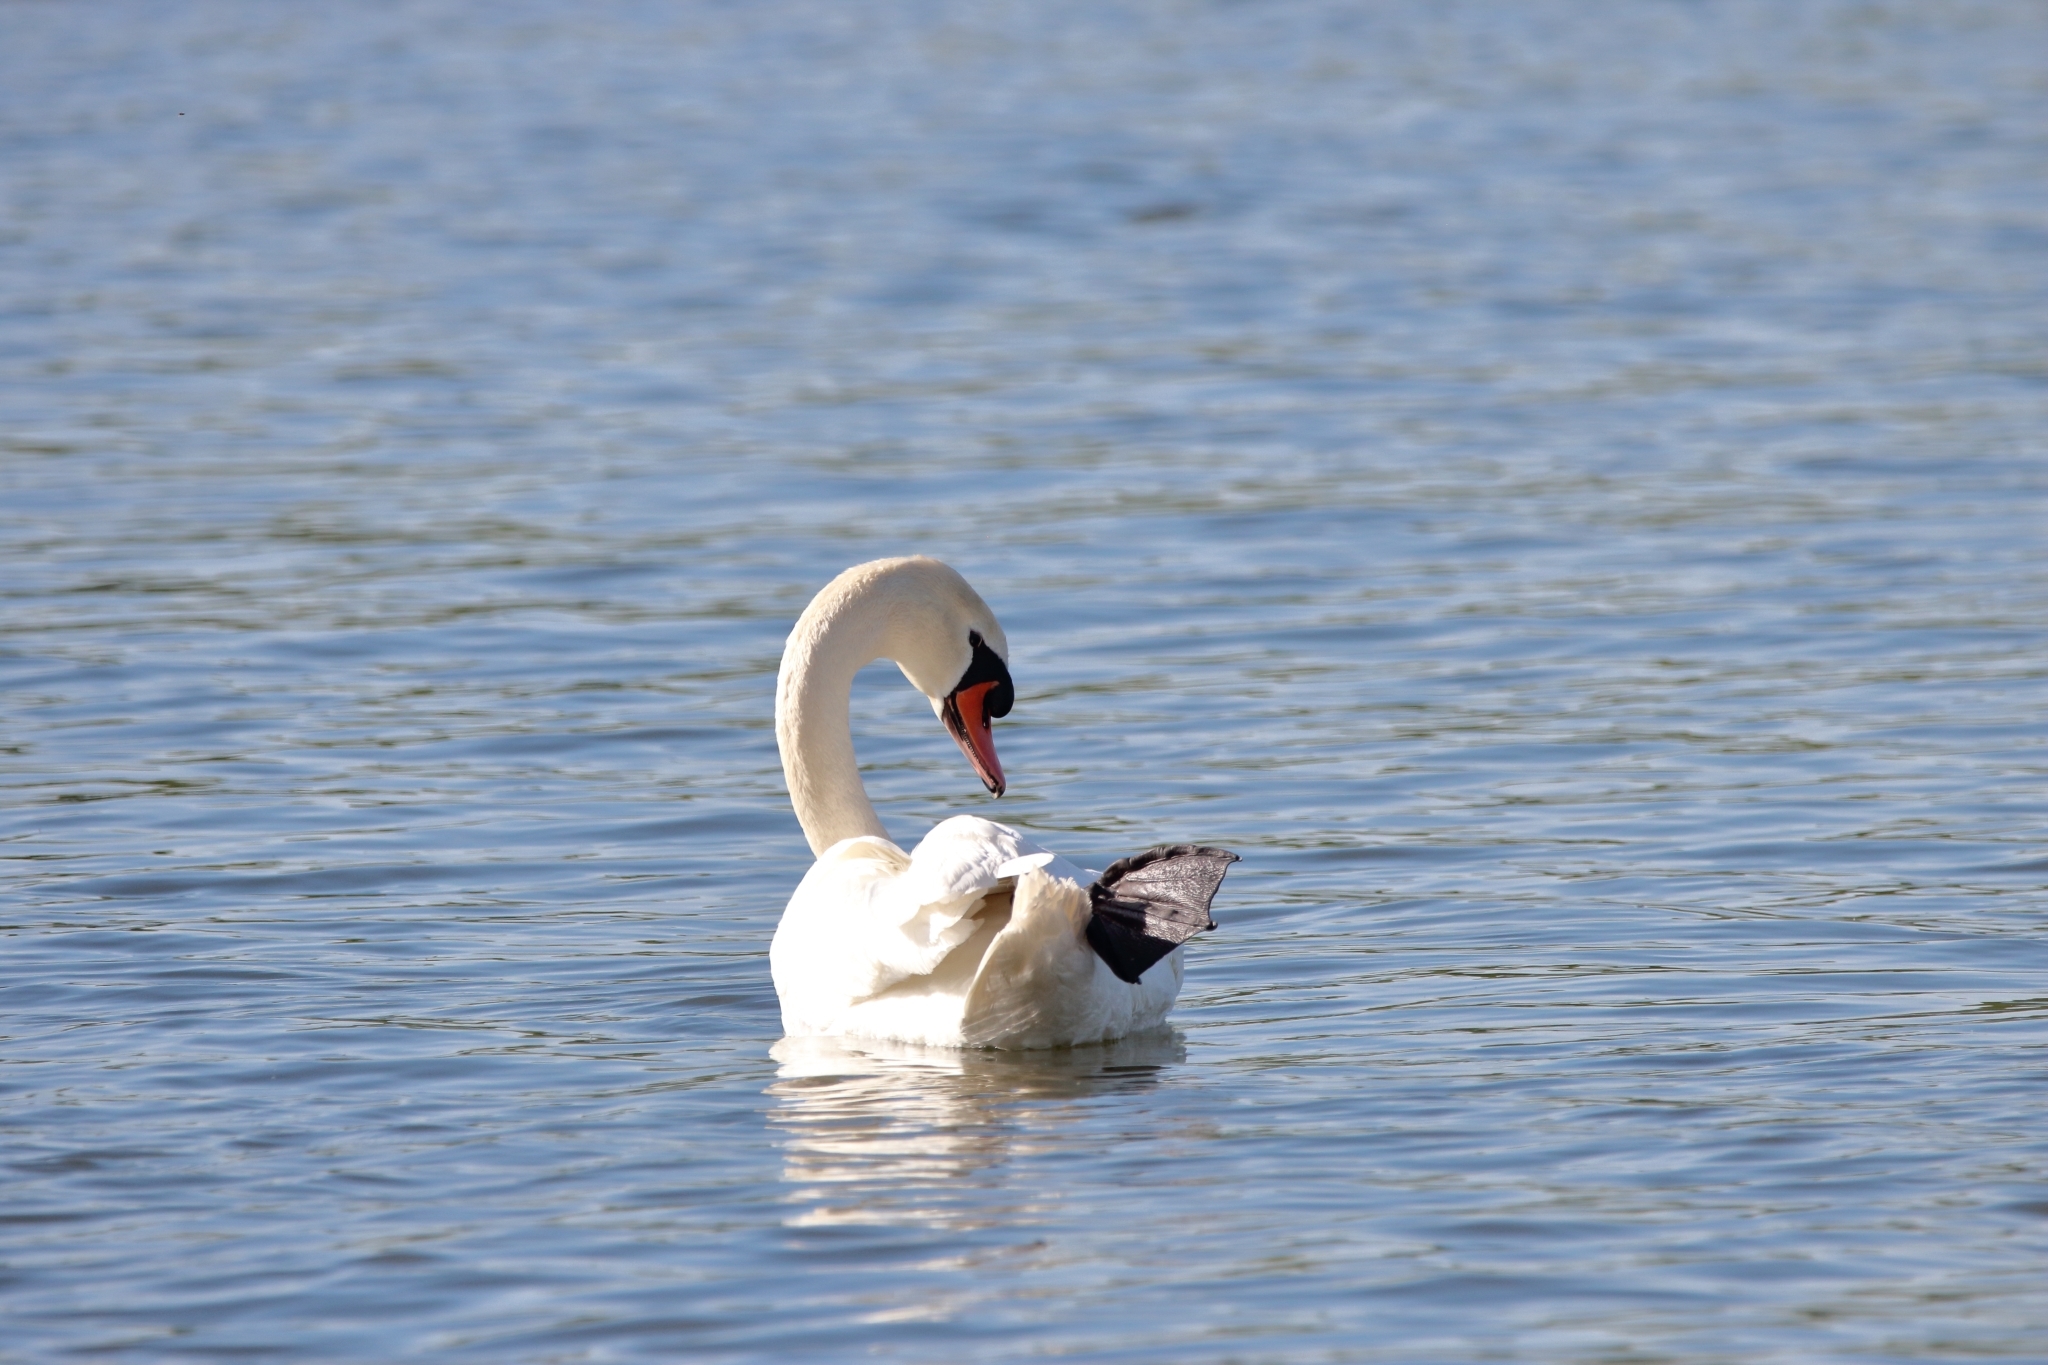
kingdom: Animalia
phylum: Chordata
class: Aves
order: Anseriformes
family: Anatidae
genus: Cygnus
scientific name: Cygnus olor
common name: Mute swan
